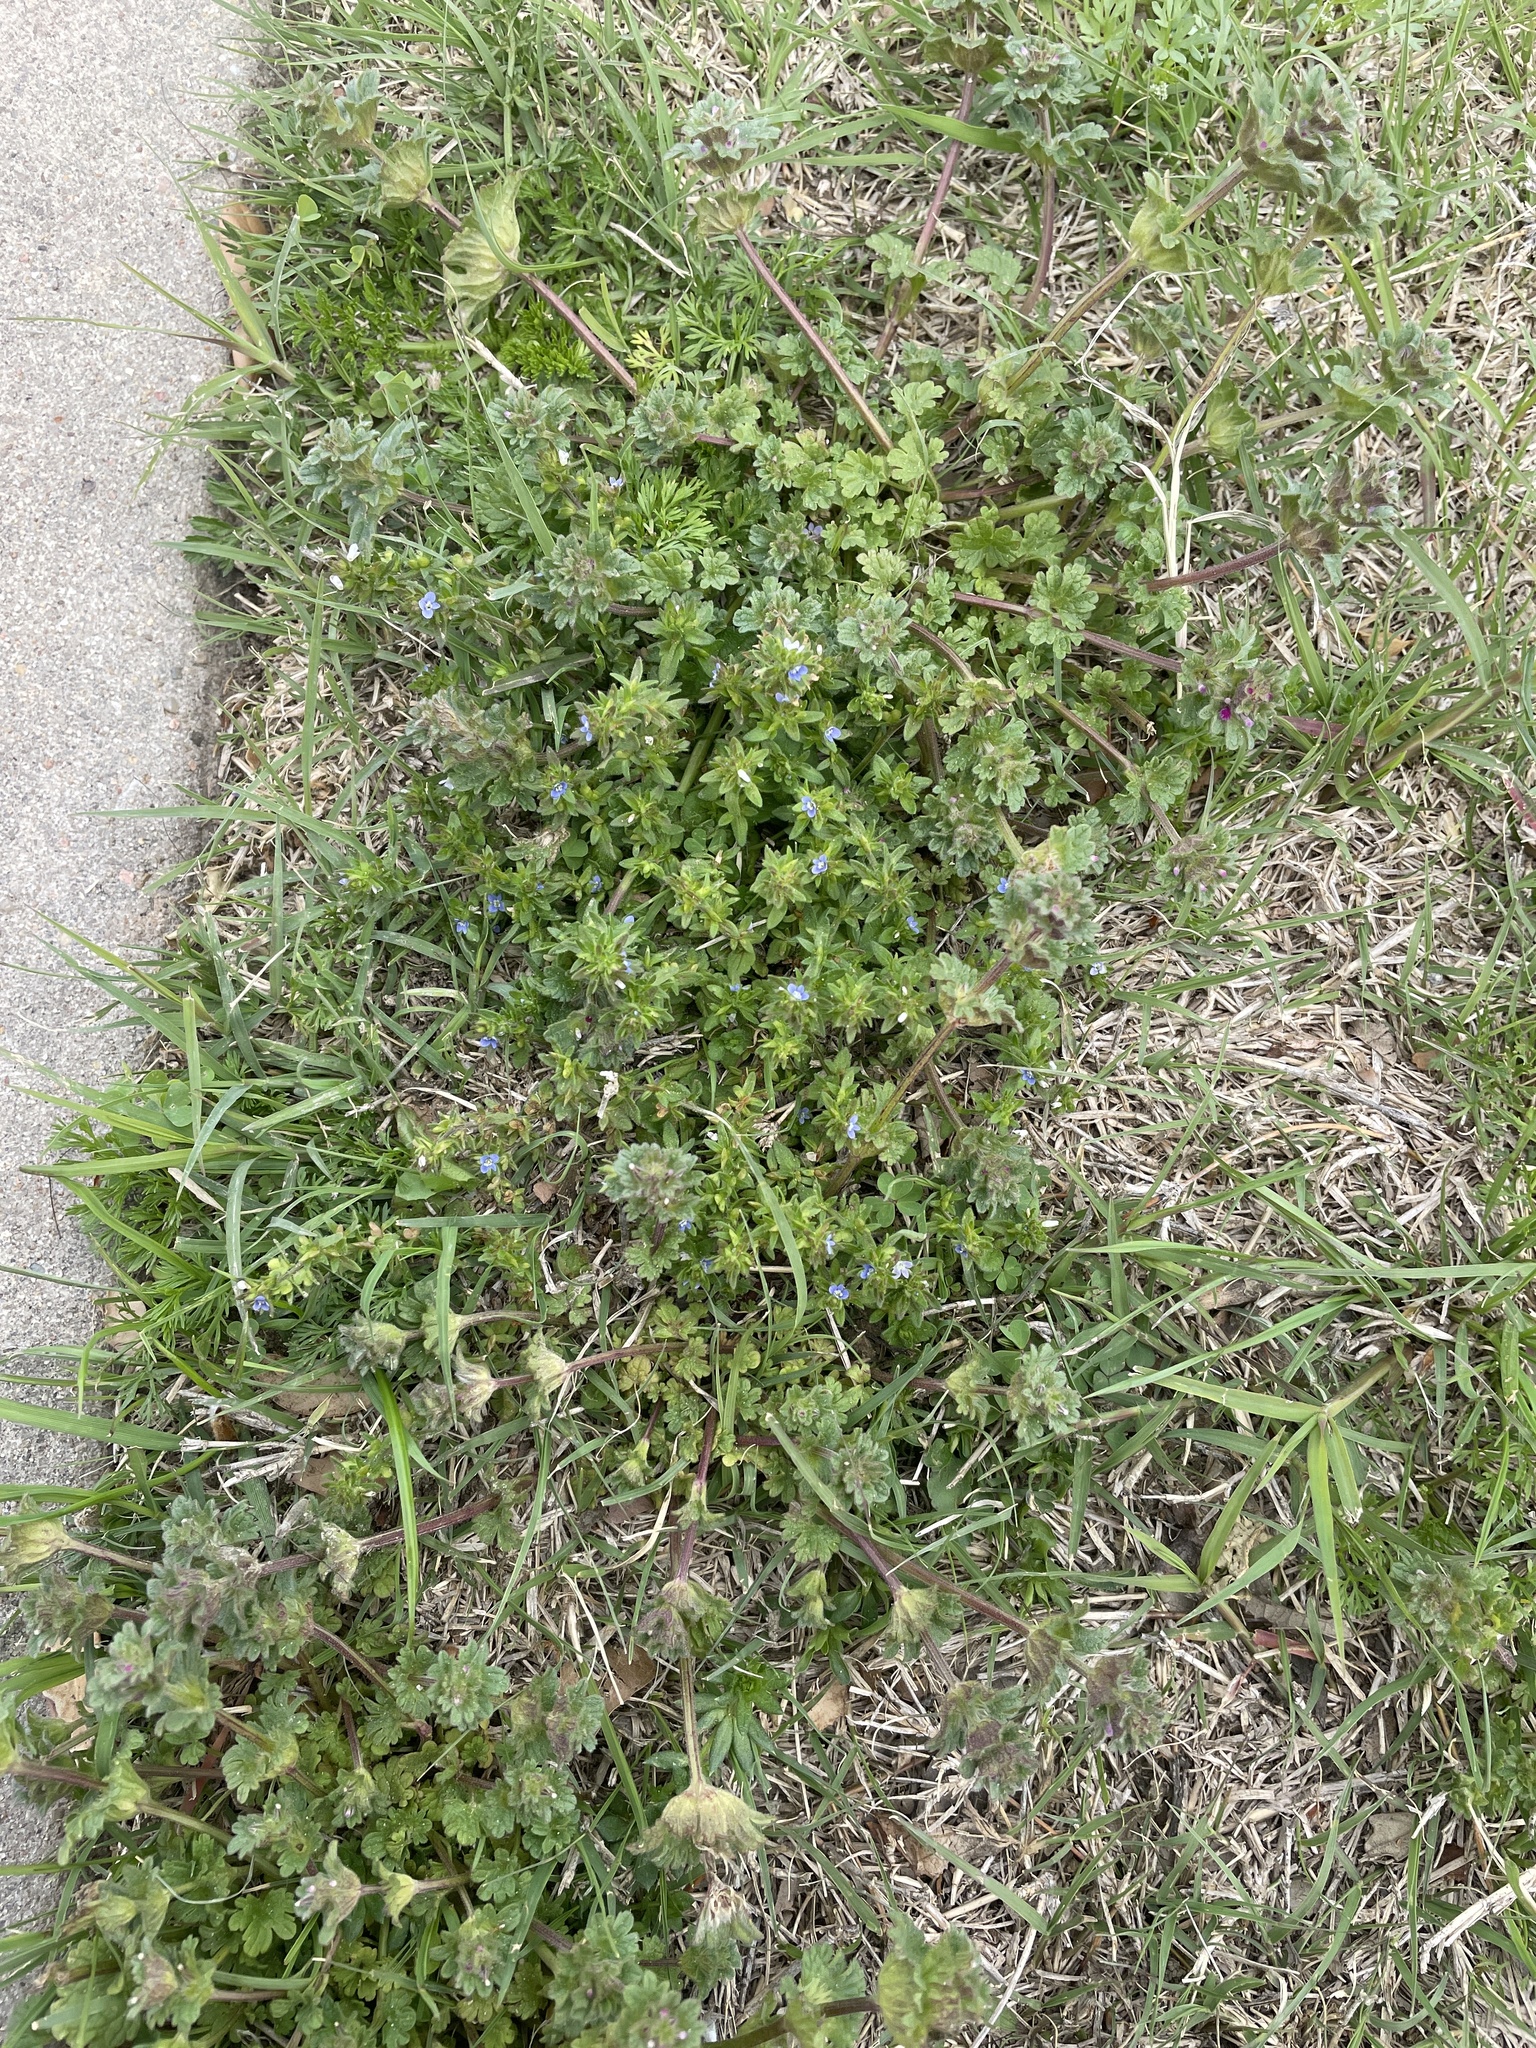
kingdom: Plantae
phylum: Tracheophyta
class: Magnoliopsida
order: Lamiales
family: Plantaginaceae
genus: Veronica
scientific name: Veronica arvensis
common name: Corn speedwell
